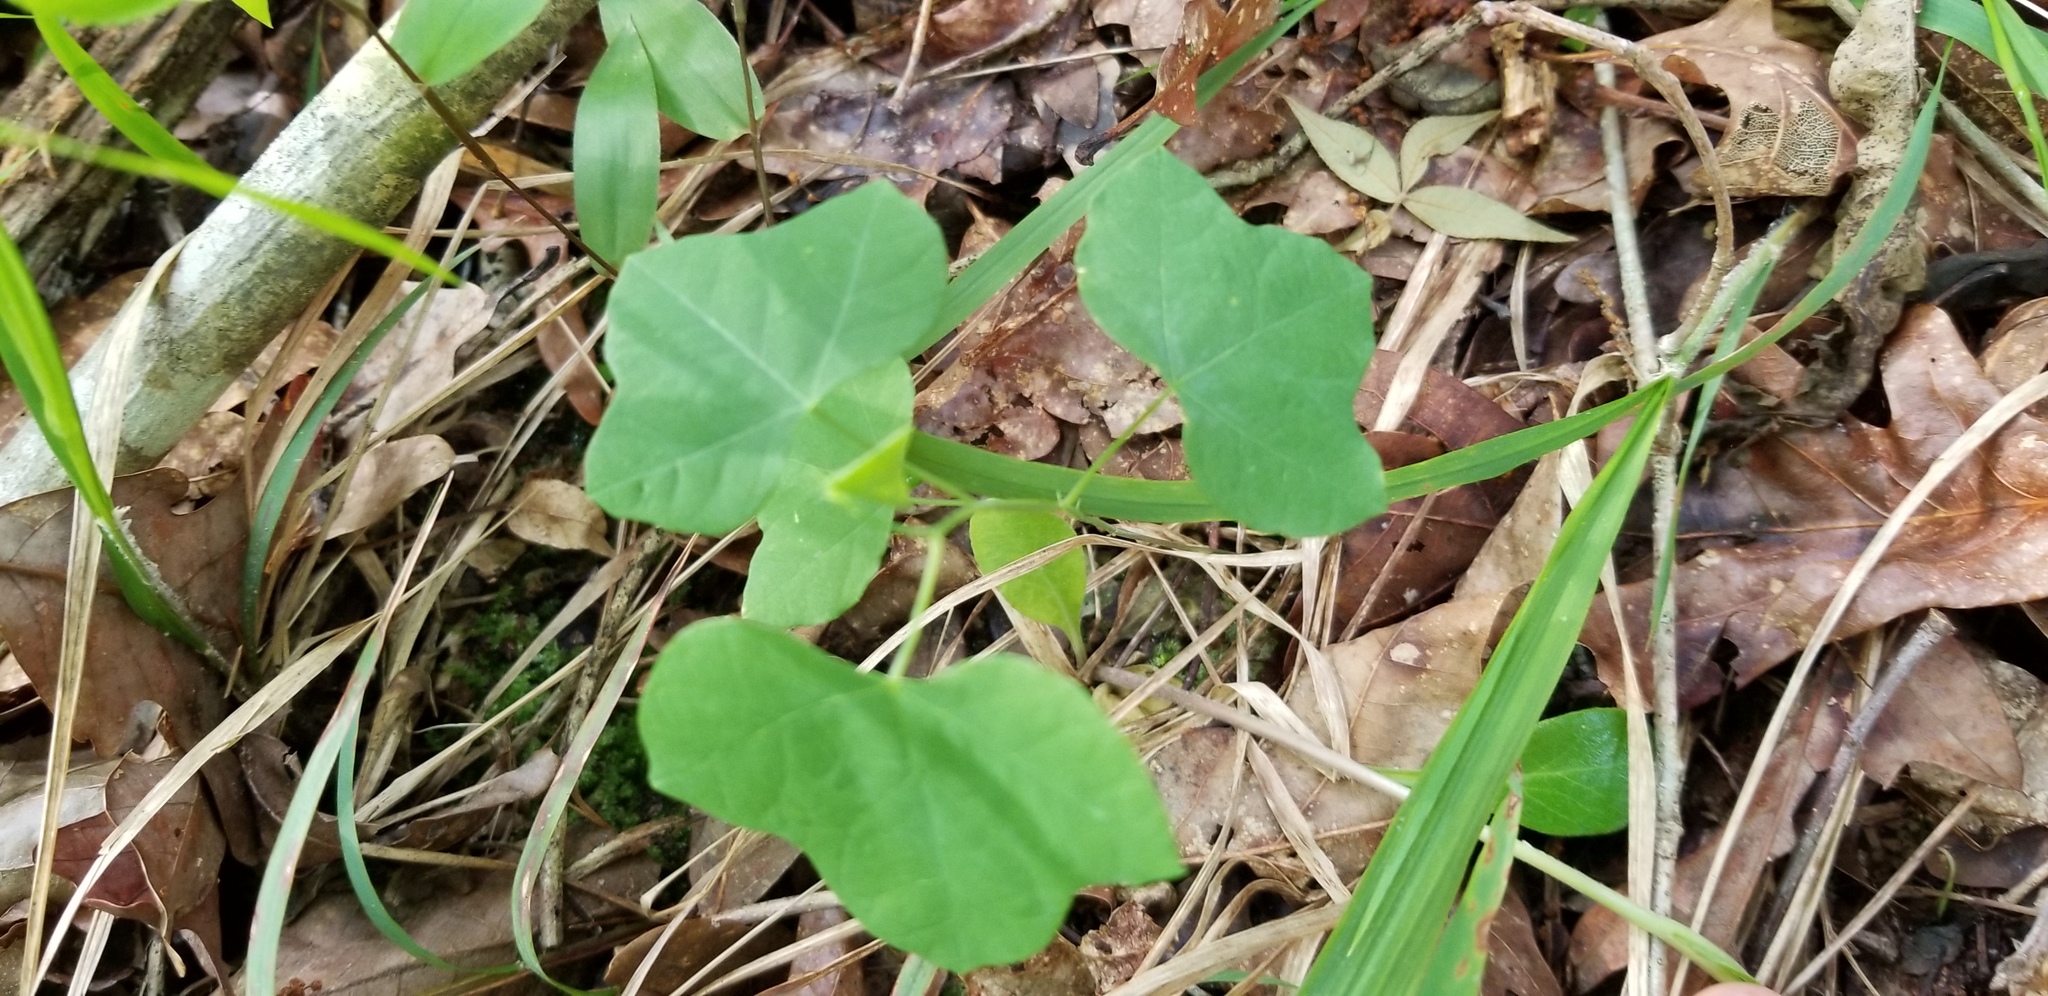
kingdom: Plantae
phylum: Tracheophyta
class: Magnoliopsida
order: Malpighiales
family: Passifloraceae
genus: Passiflora
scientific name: Passiflora lutea
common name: Yellow passionflower
